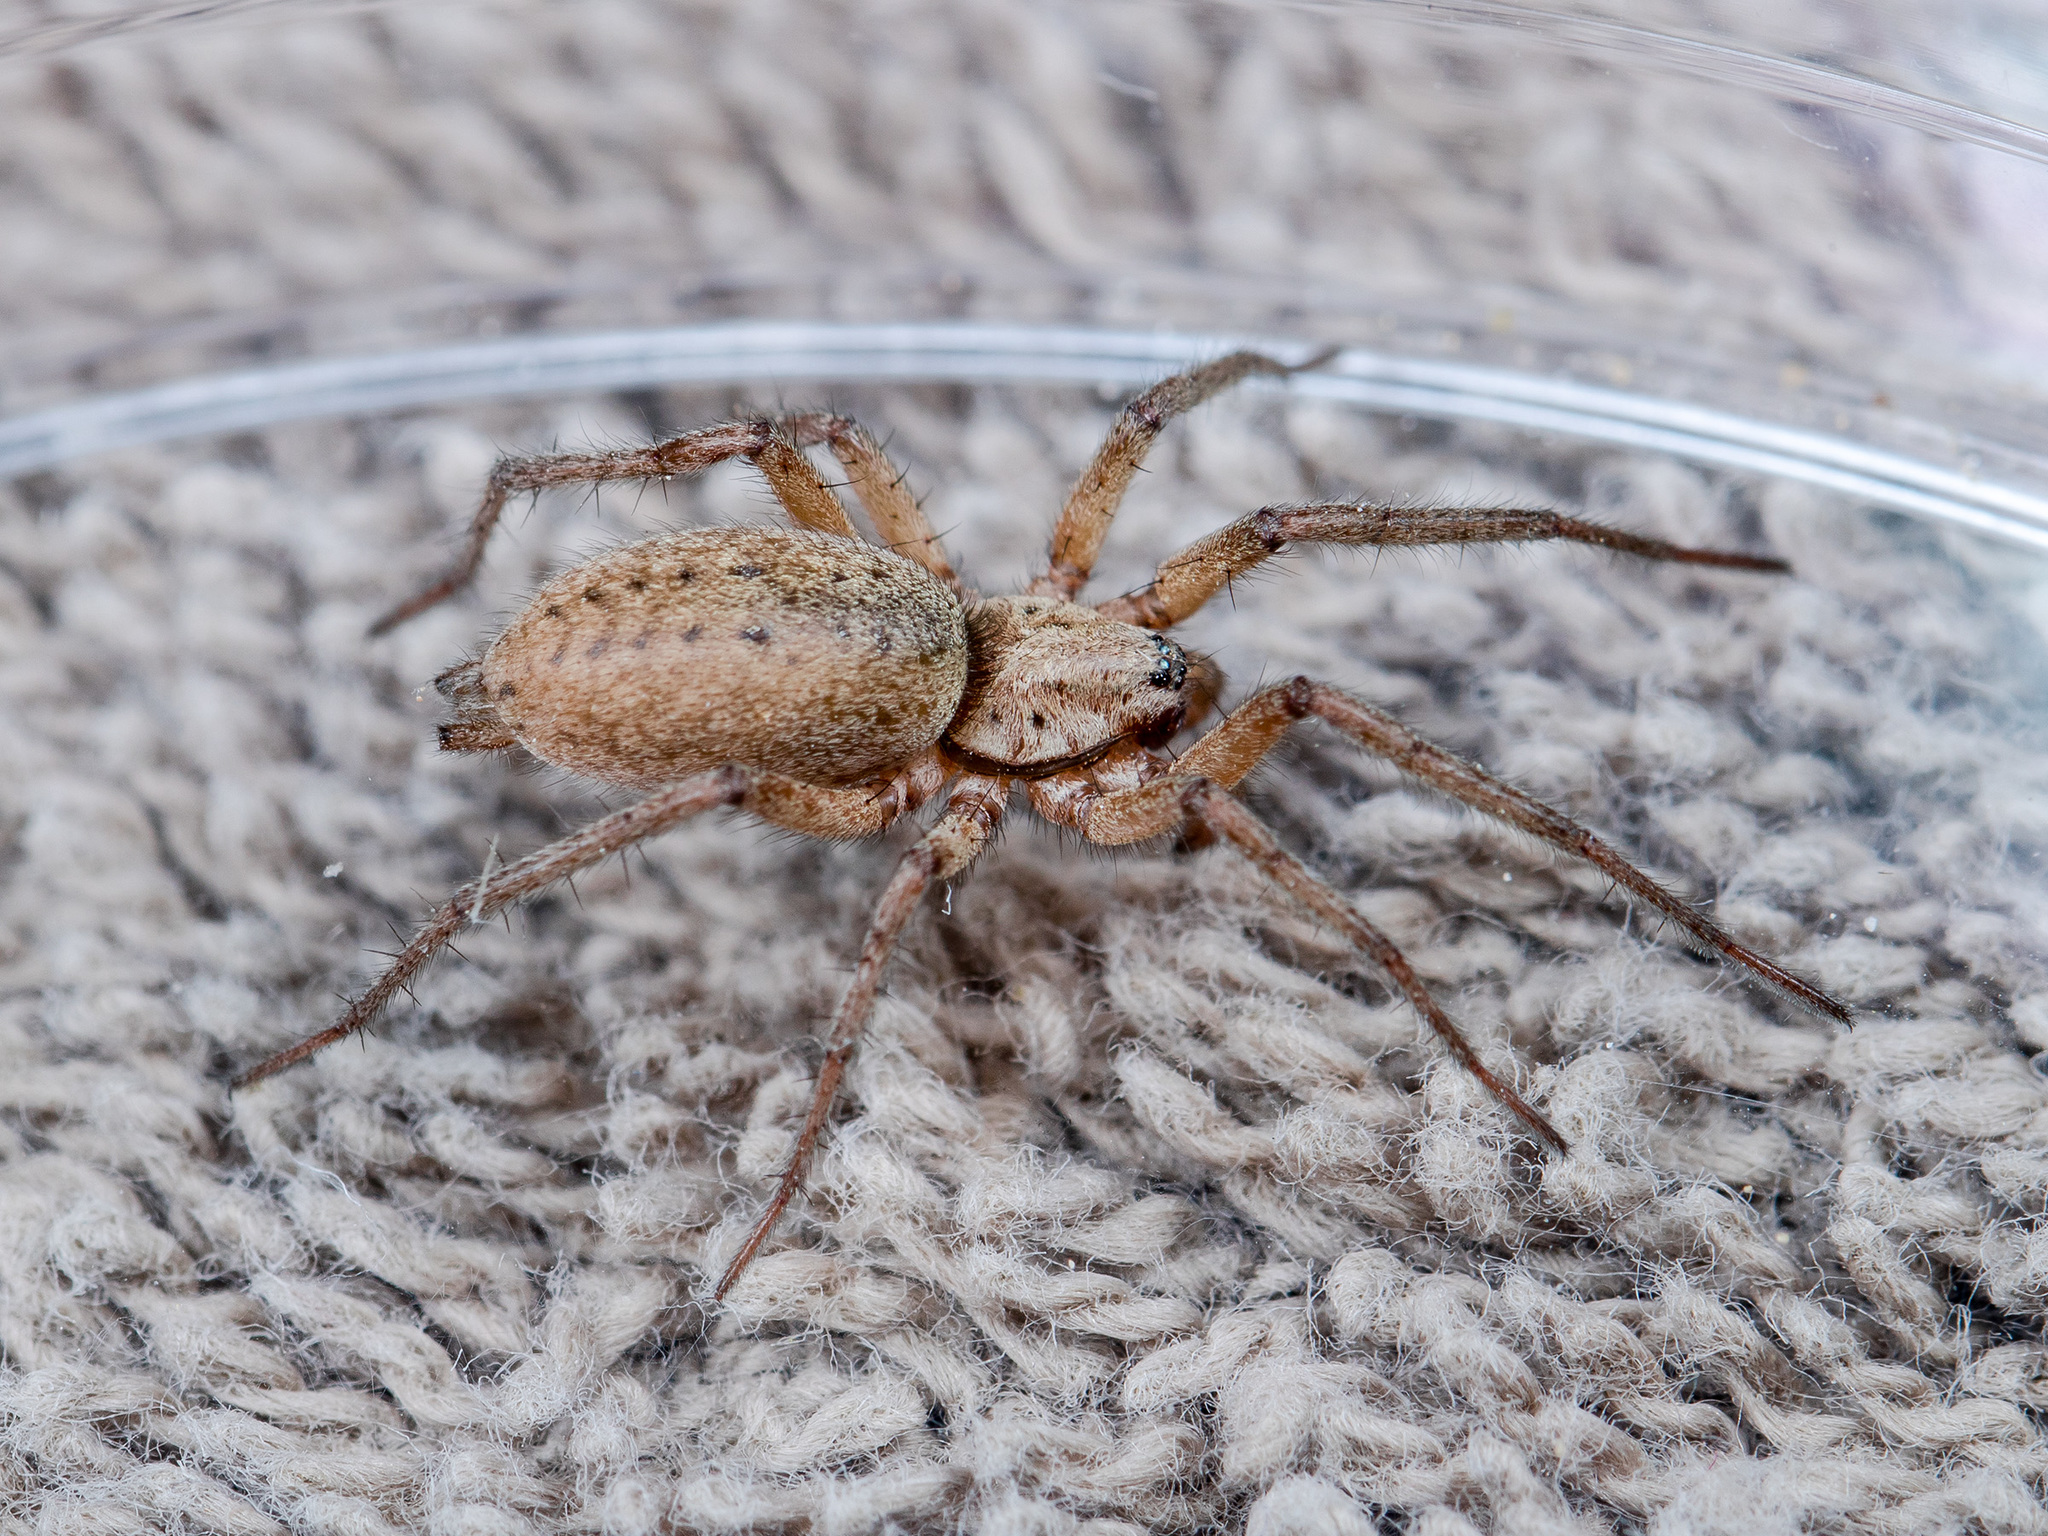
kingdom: Animalia
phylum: Arthropoda
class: Arachnida
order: Araneae
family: Gnaphosidae
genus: Nomisia
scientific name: Nomisia aussereri
